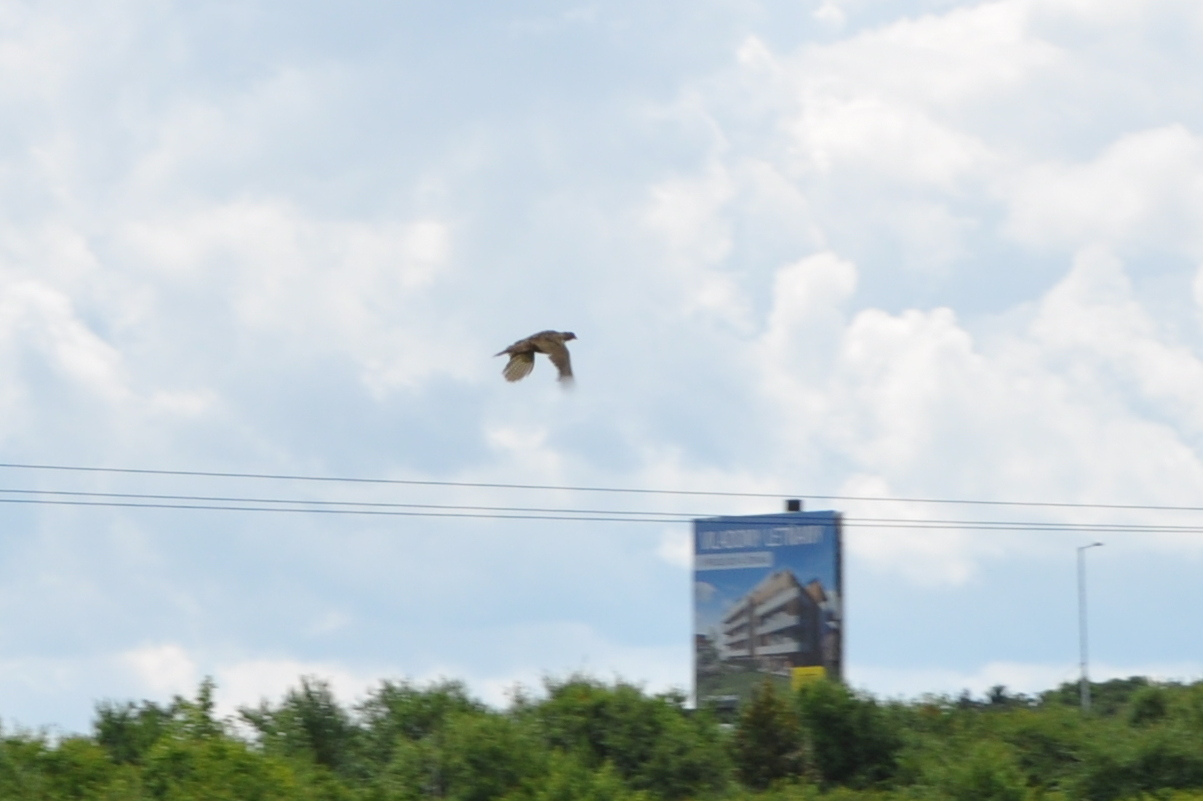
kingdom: Animalia
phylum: Chordata
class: Aves
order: Galliformes
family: Phasianidae
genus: Phasianus
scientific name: Phasianus colchicus
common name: Common pheasant
